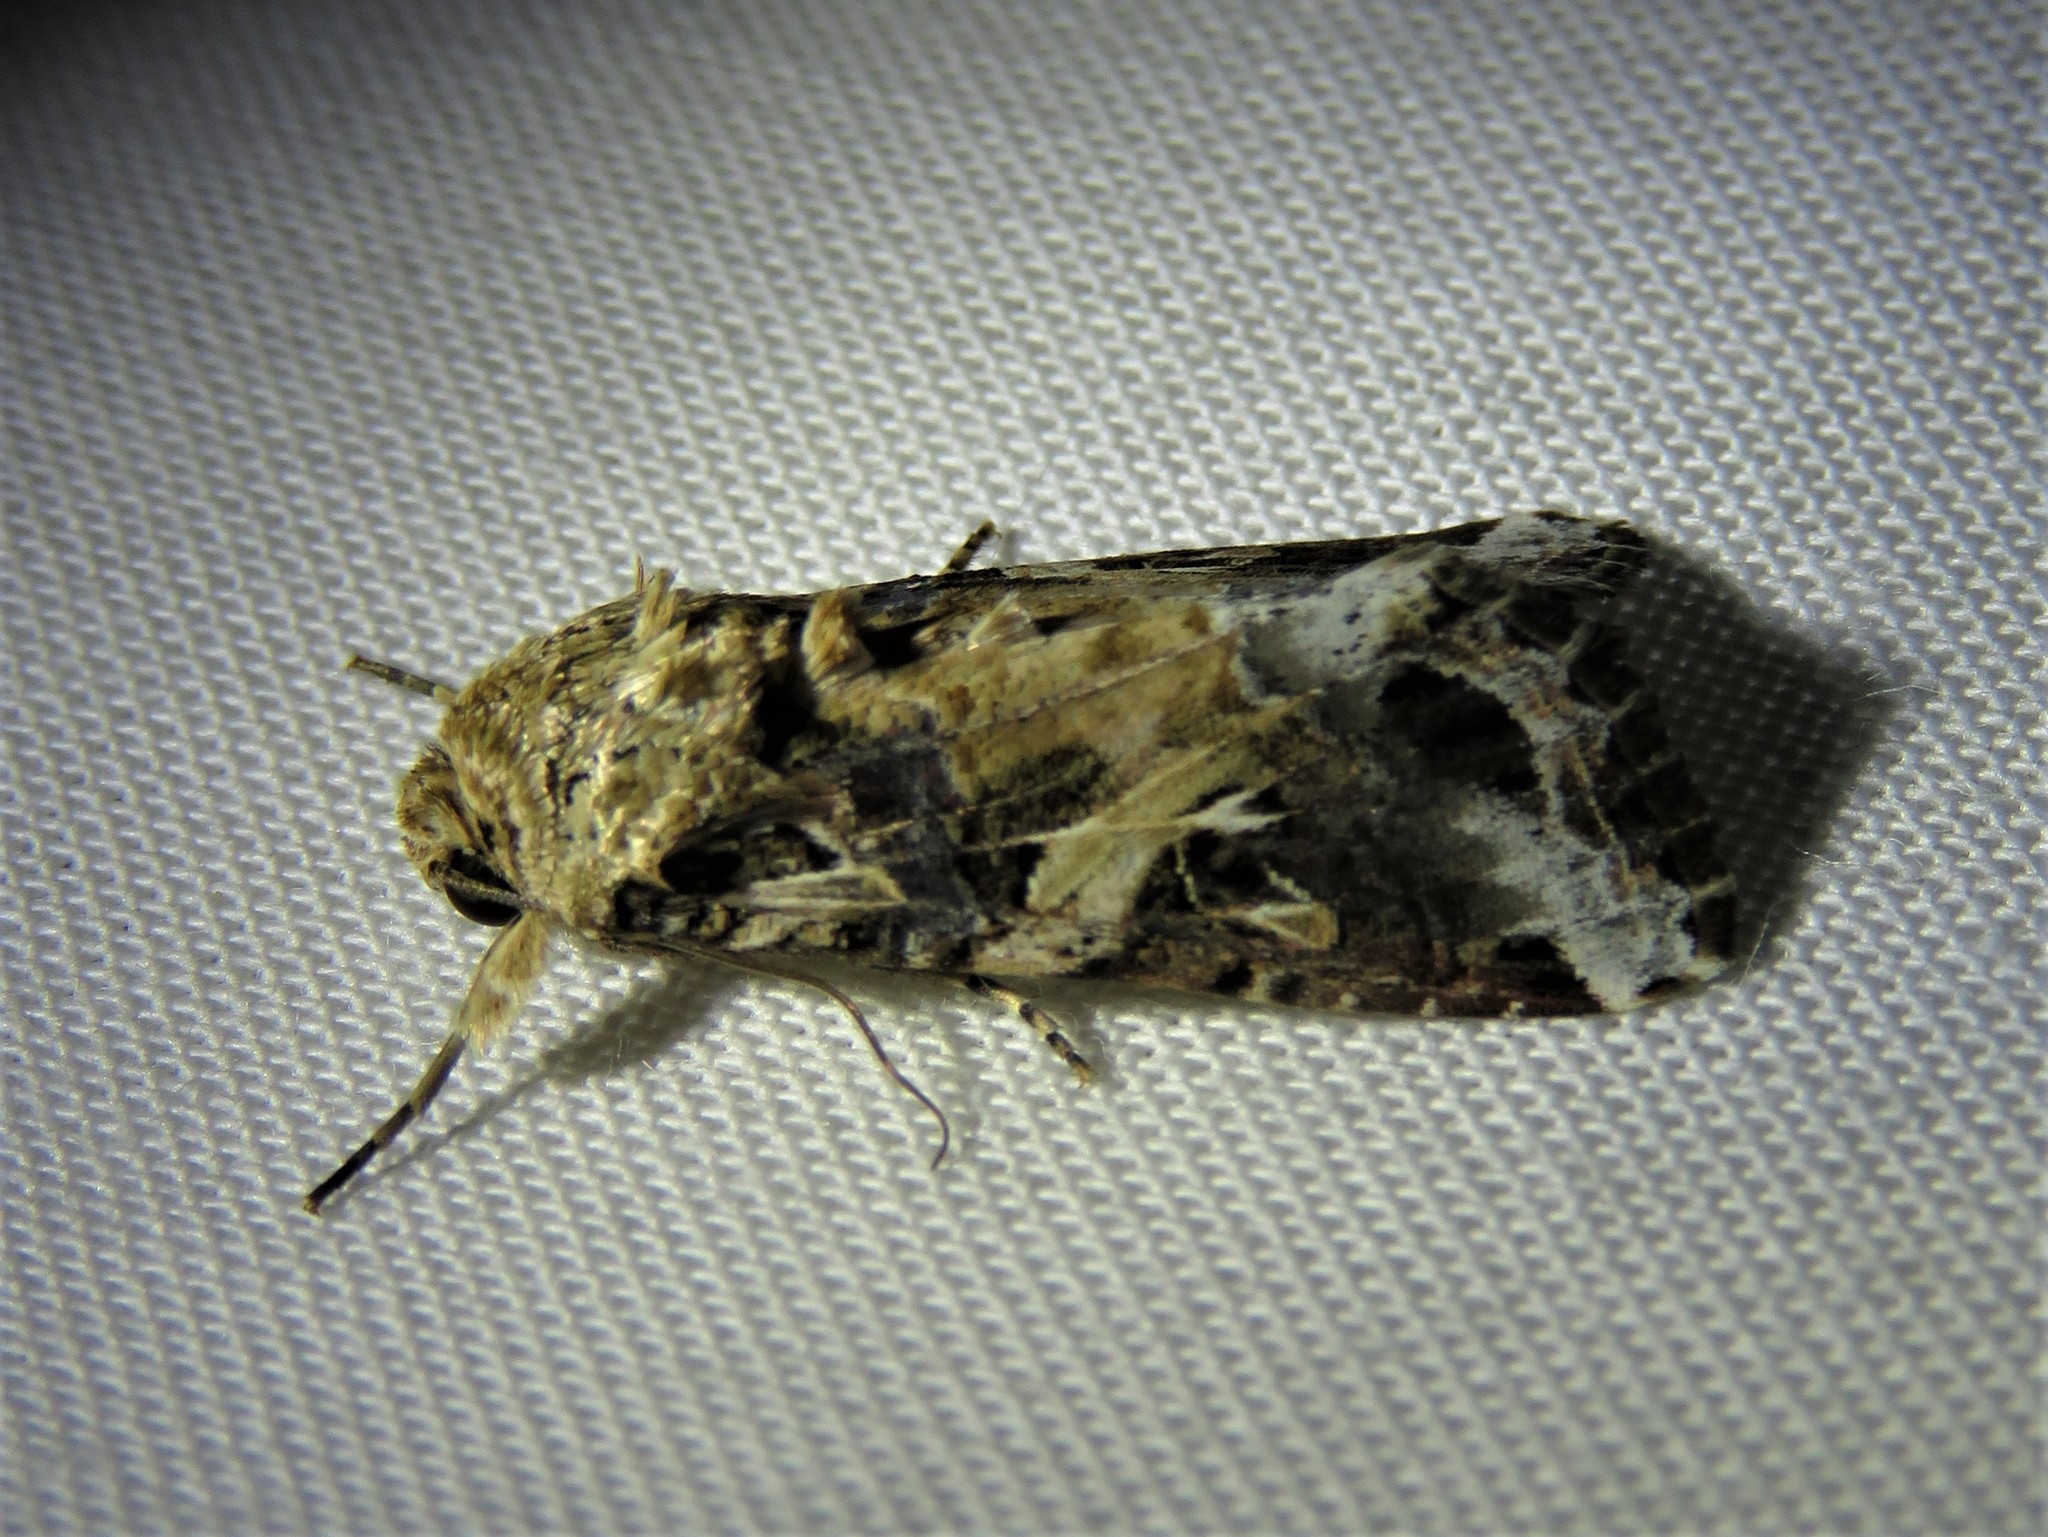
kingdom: Animalia
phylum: Arthropoda
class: Insecta
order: Lepidoptera
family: Noctuidae
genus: Spodoptera
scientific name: Spodoptera ornithogalli
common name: Yellow-striped armyworm
